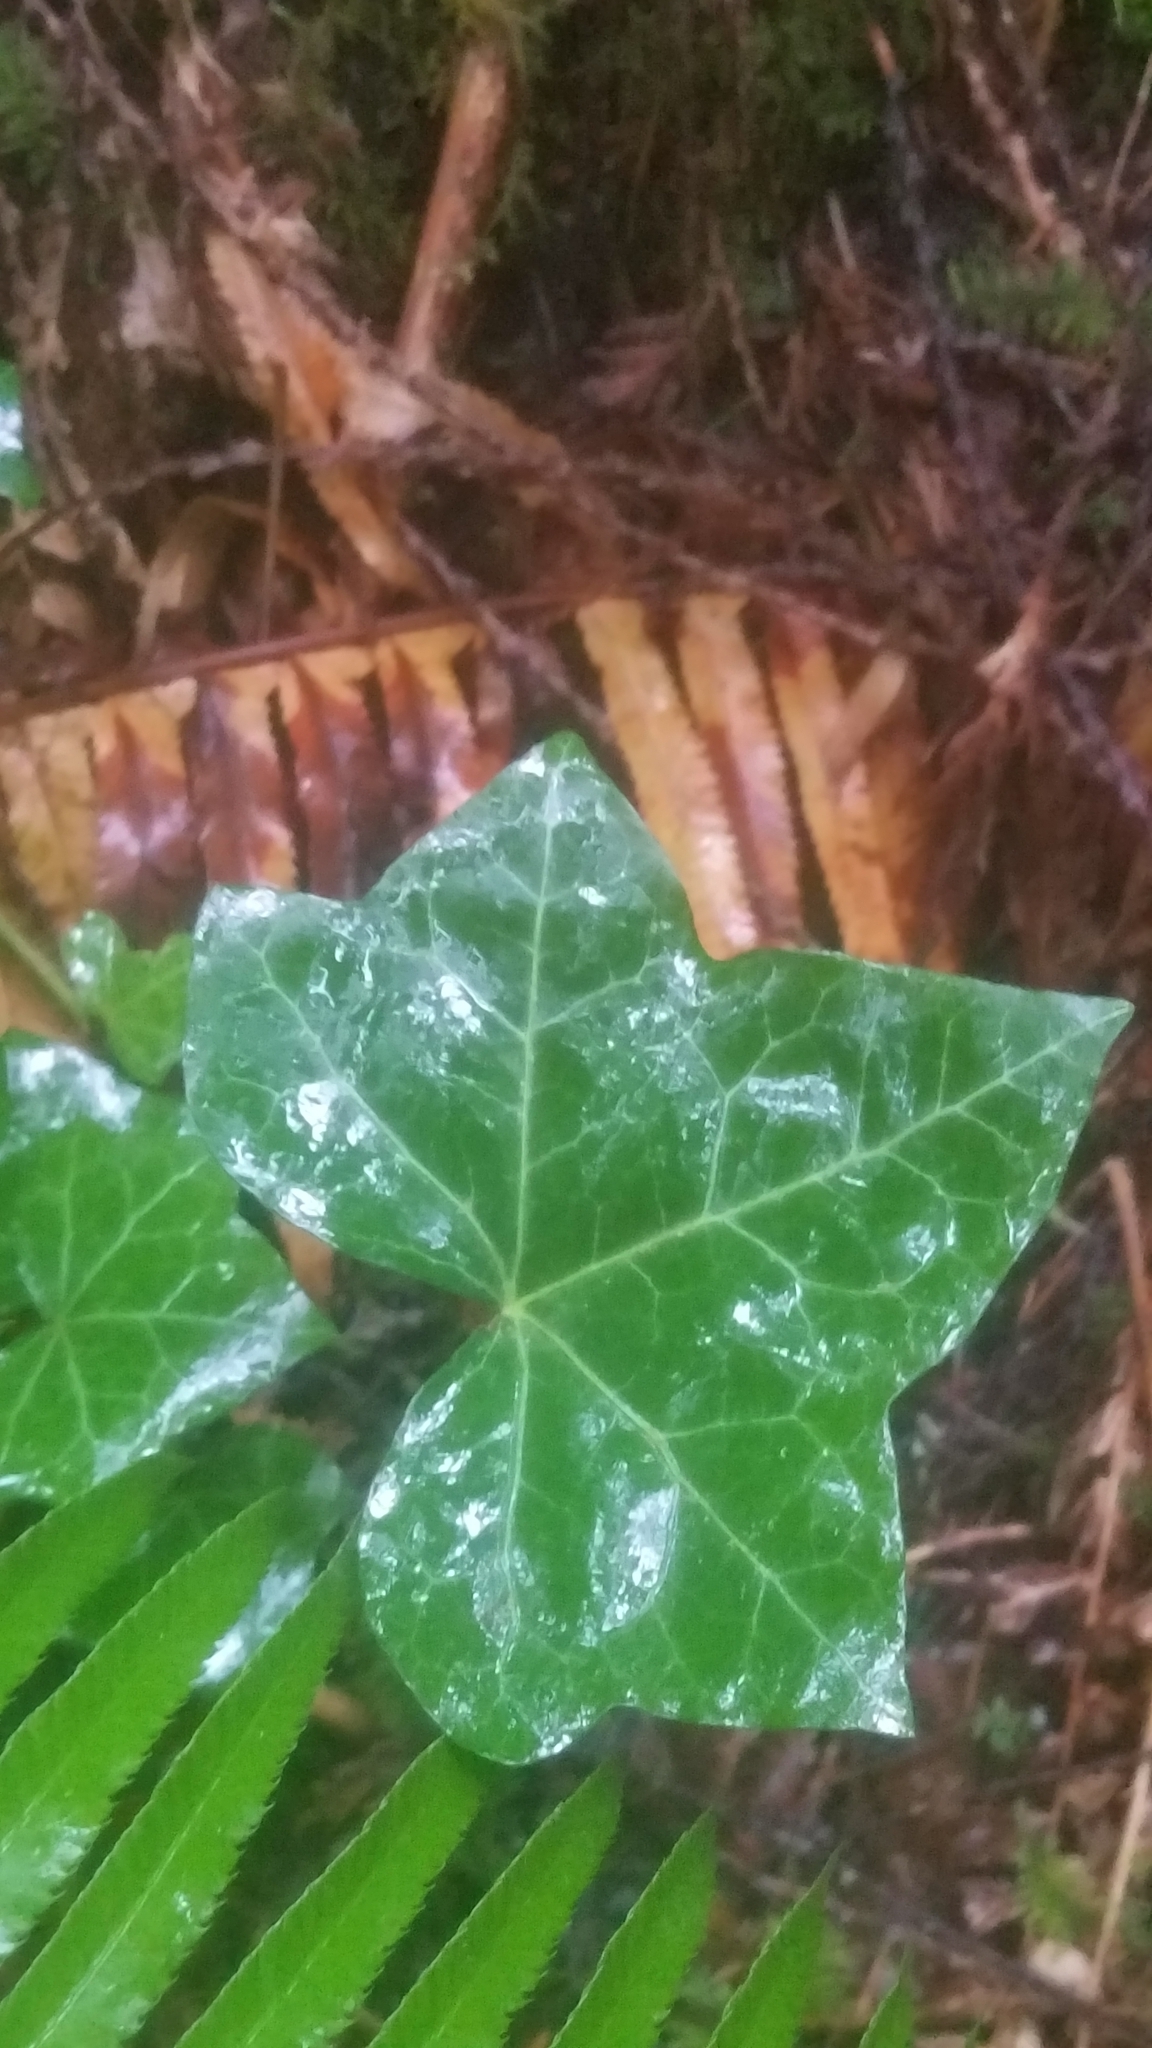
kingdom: Plantae
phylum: Tracheophyta
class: Magnoliopsida
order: Apiales
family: Araliaceae
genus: Hedera
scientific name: Hedera helix
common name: Ivy
